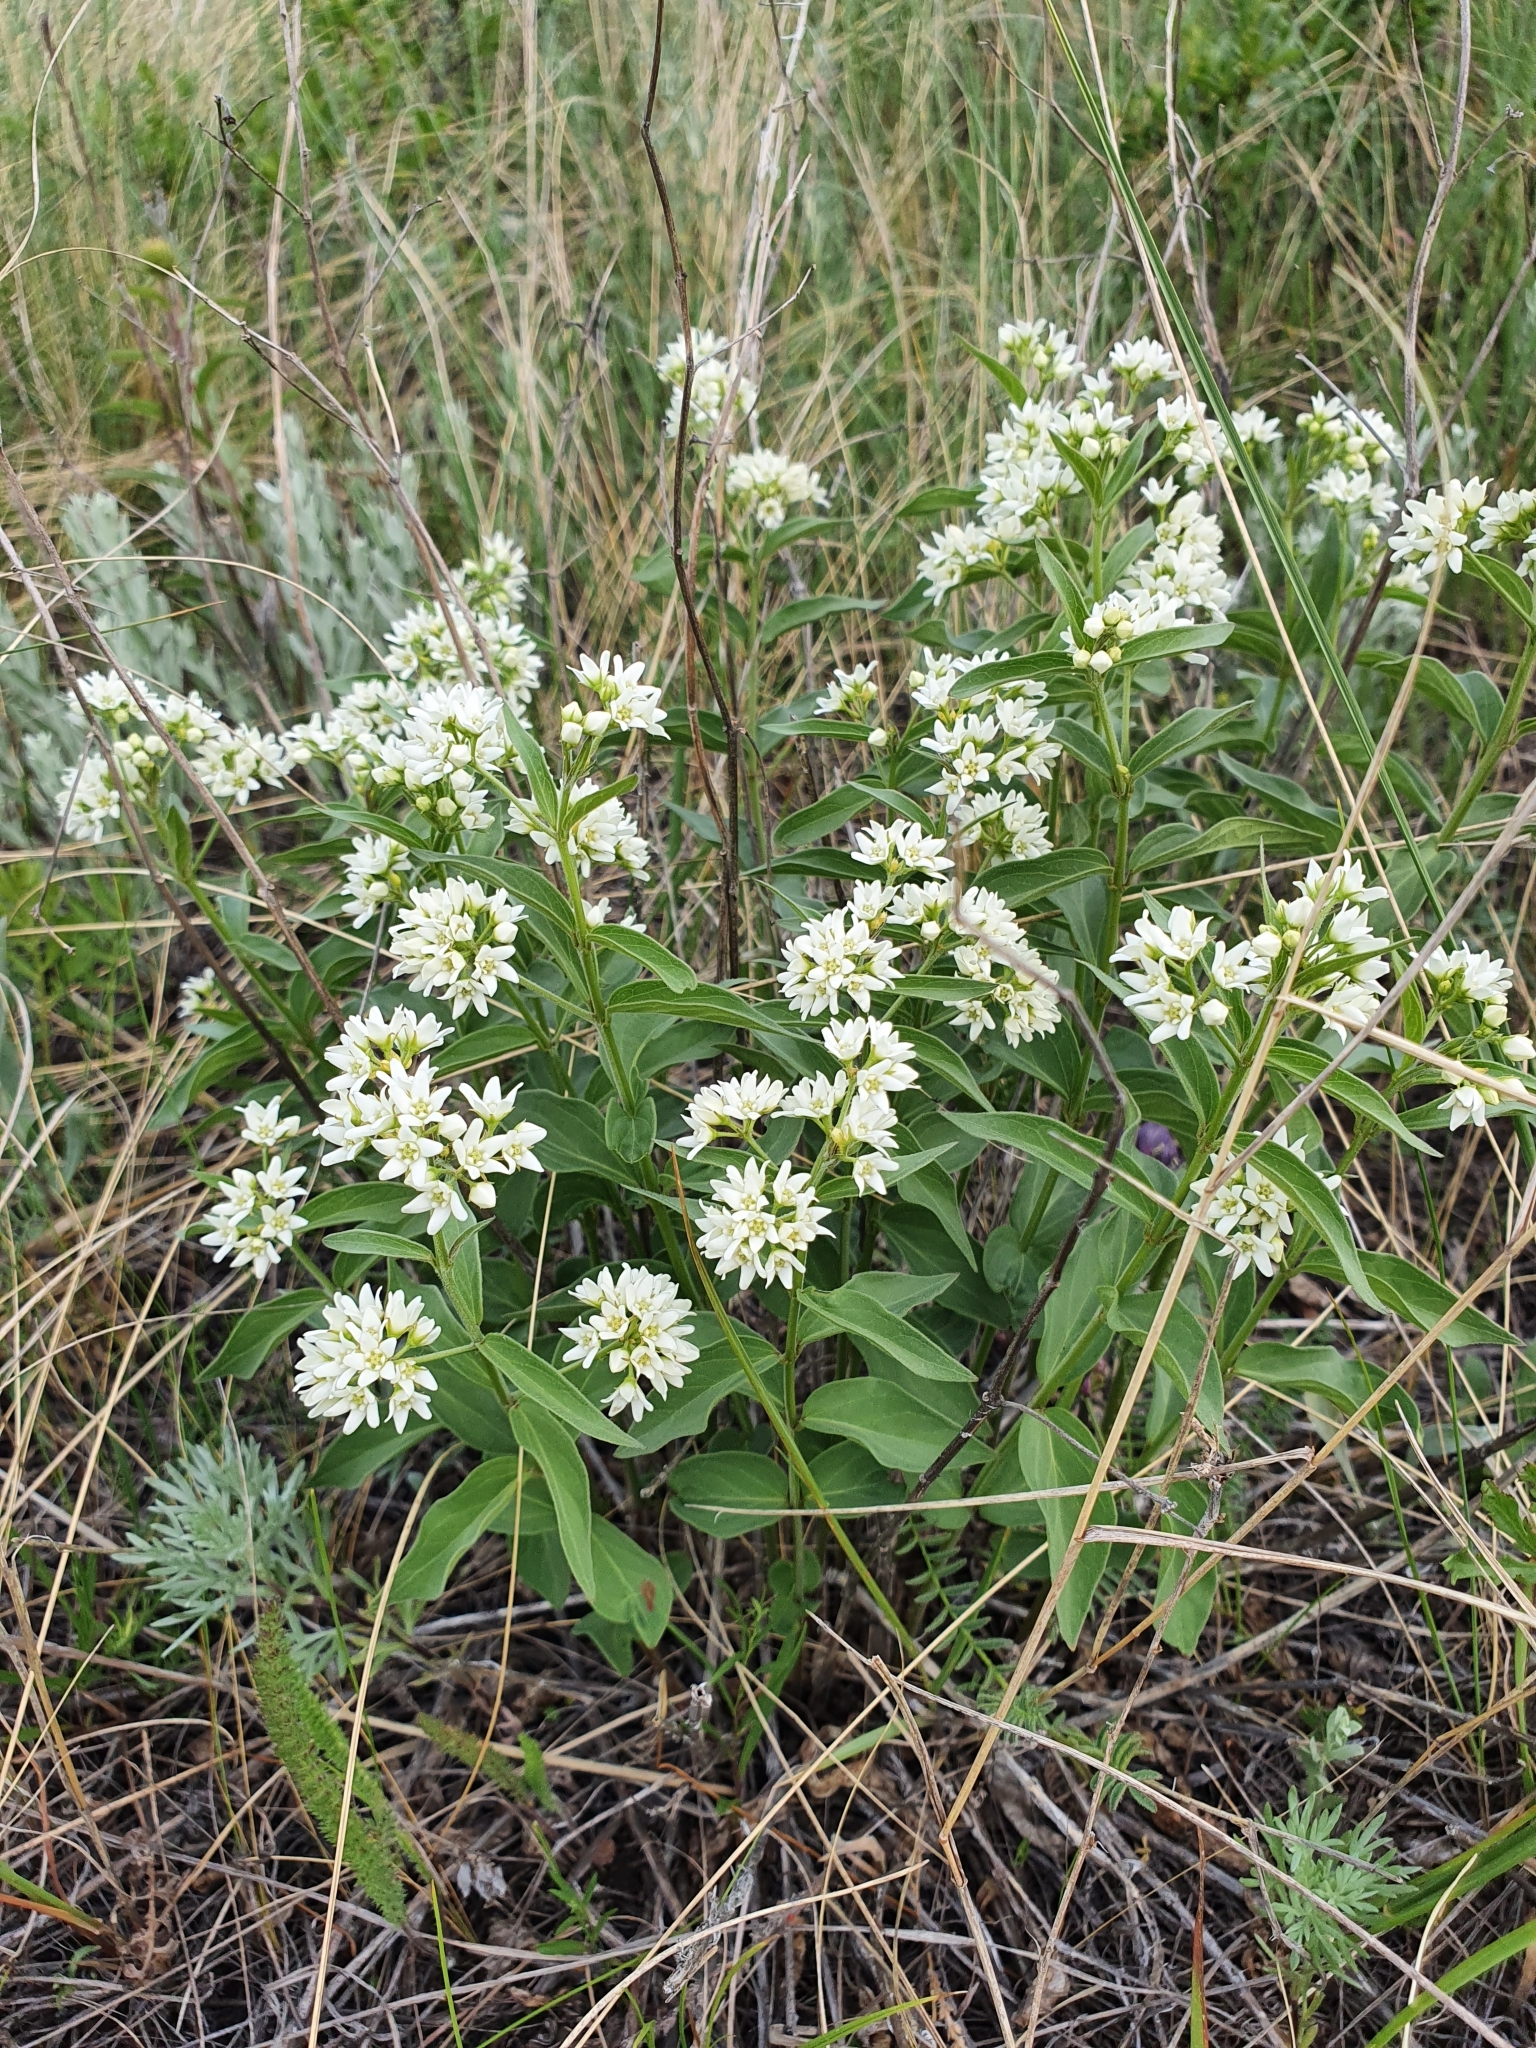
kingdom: Plantae
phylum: Tracheophyta
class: Magnoliopsida
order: Gentianales
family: Apocynaceae
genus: Vincetoxicum
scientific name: Vincetoxicum hirundinaria
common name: White swallowwort
